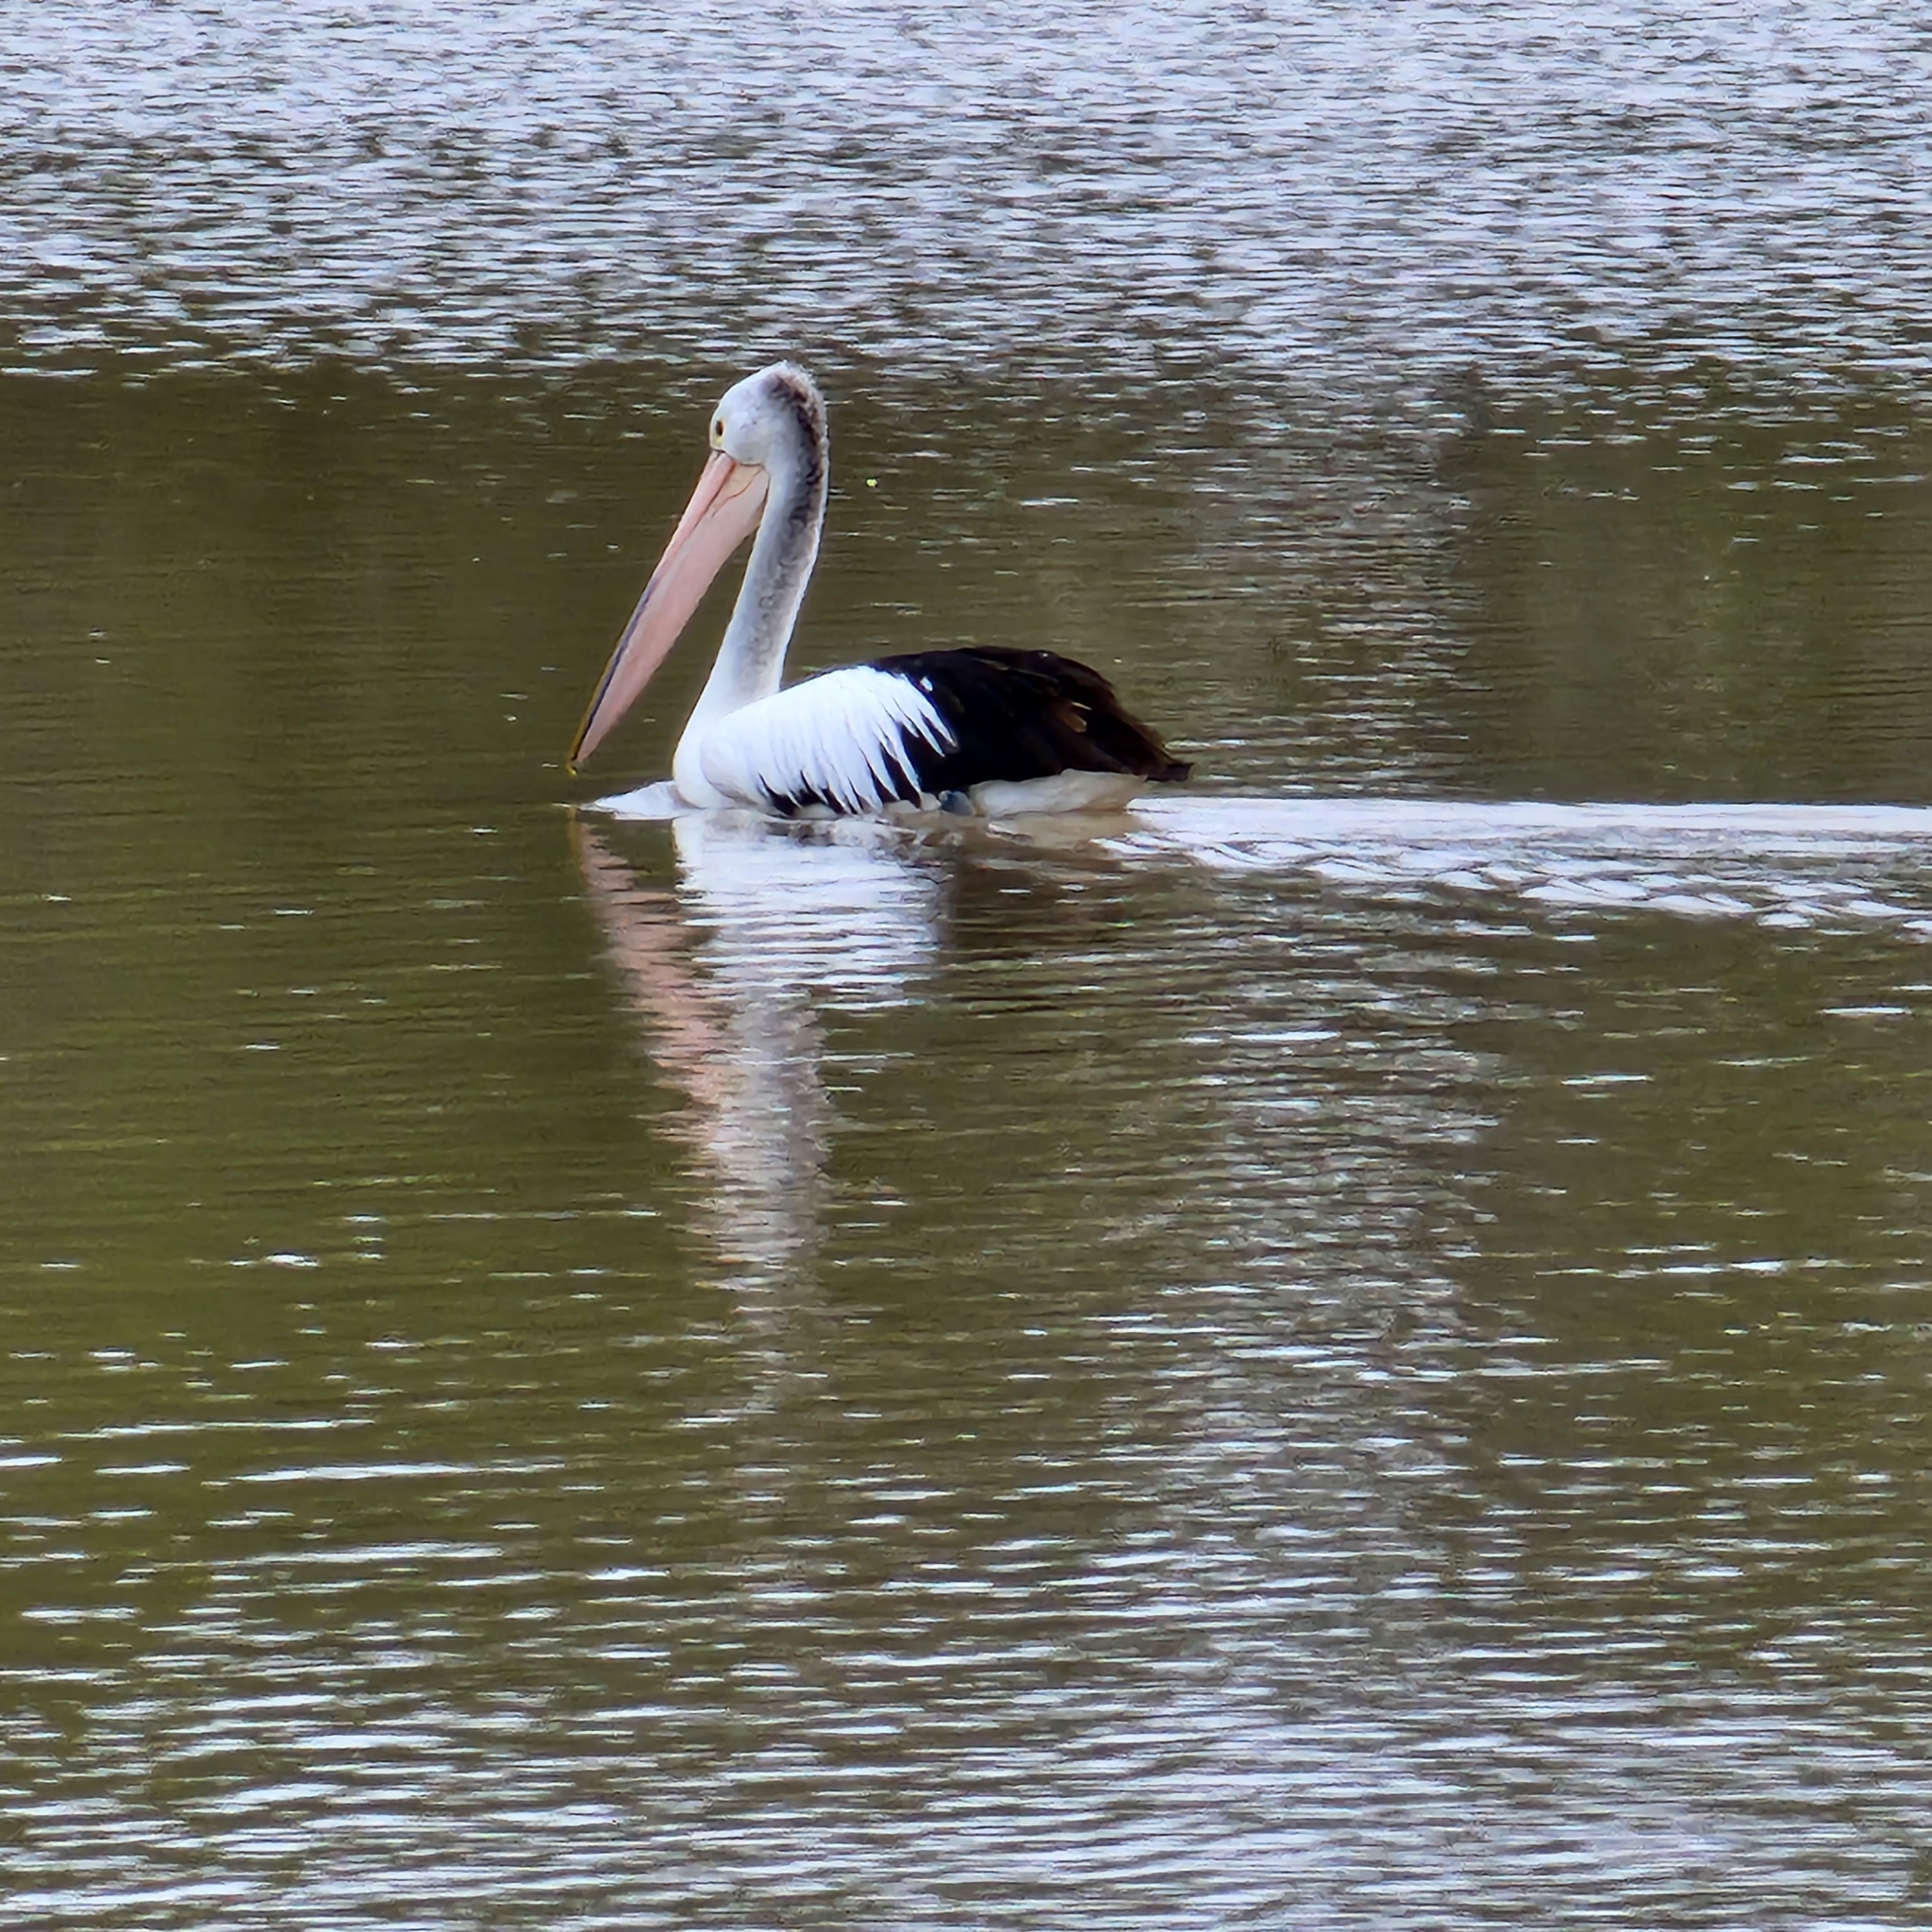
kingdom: Animalia
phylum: Chordata
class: Aves
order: Pelecaniformes
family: Pelecanidae
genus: Pelecanus
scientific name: Pelecanus conspicillatus
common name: Australian pelican
